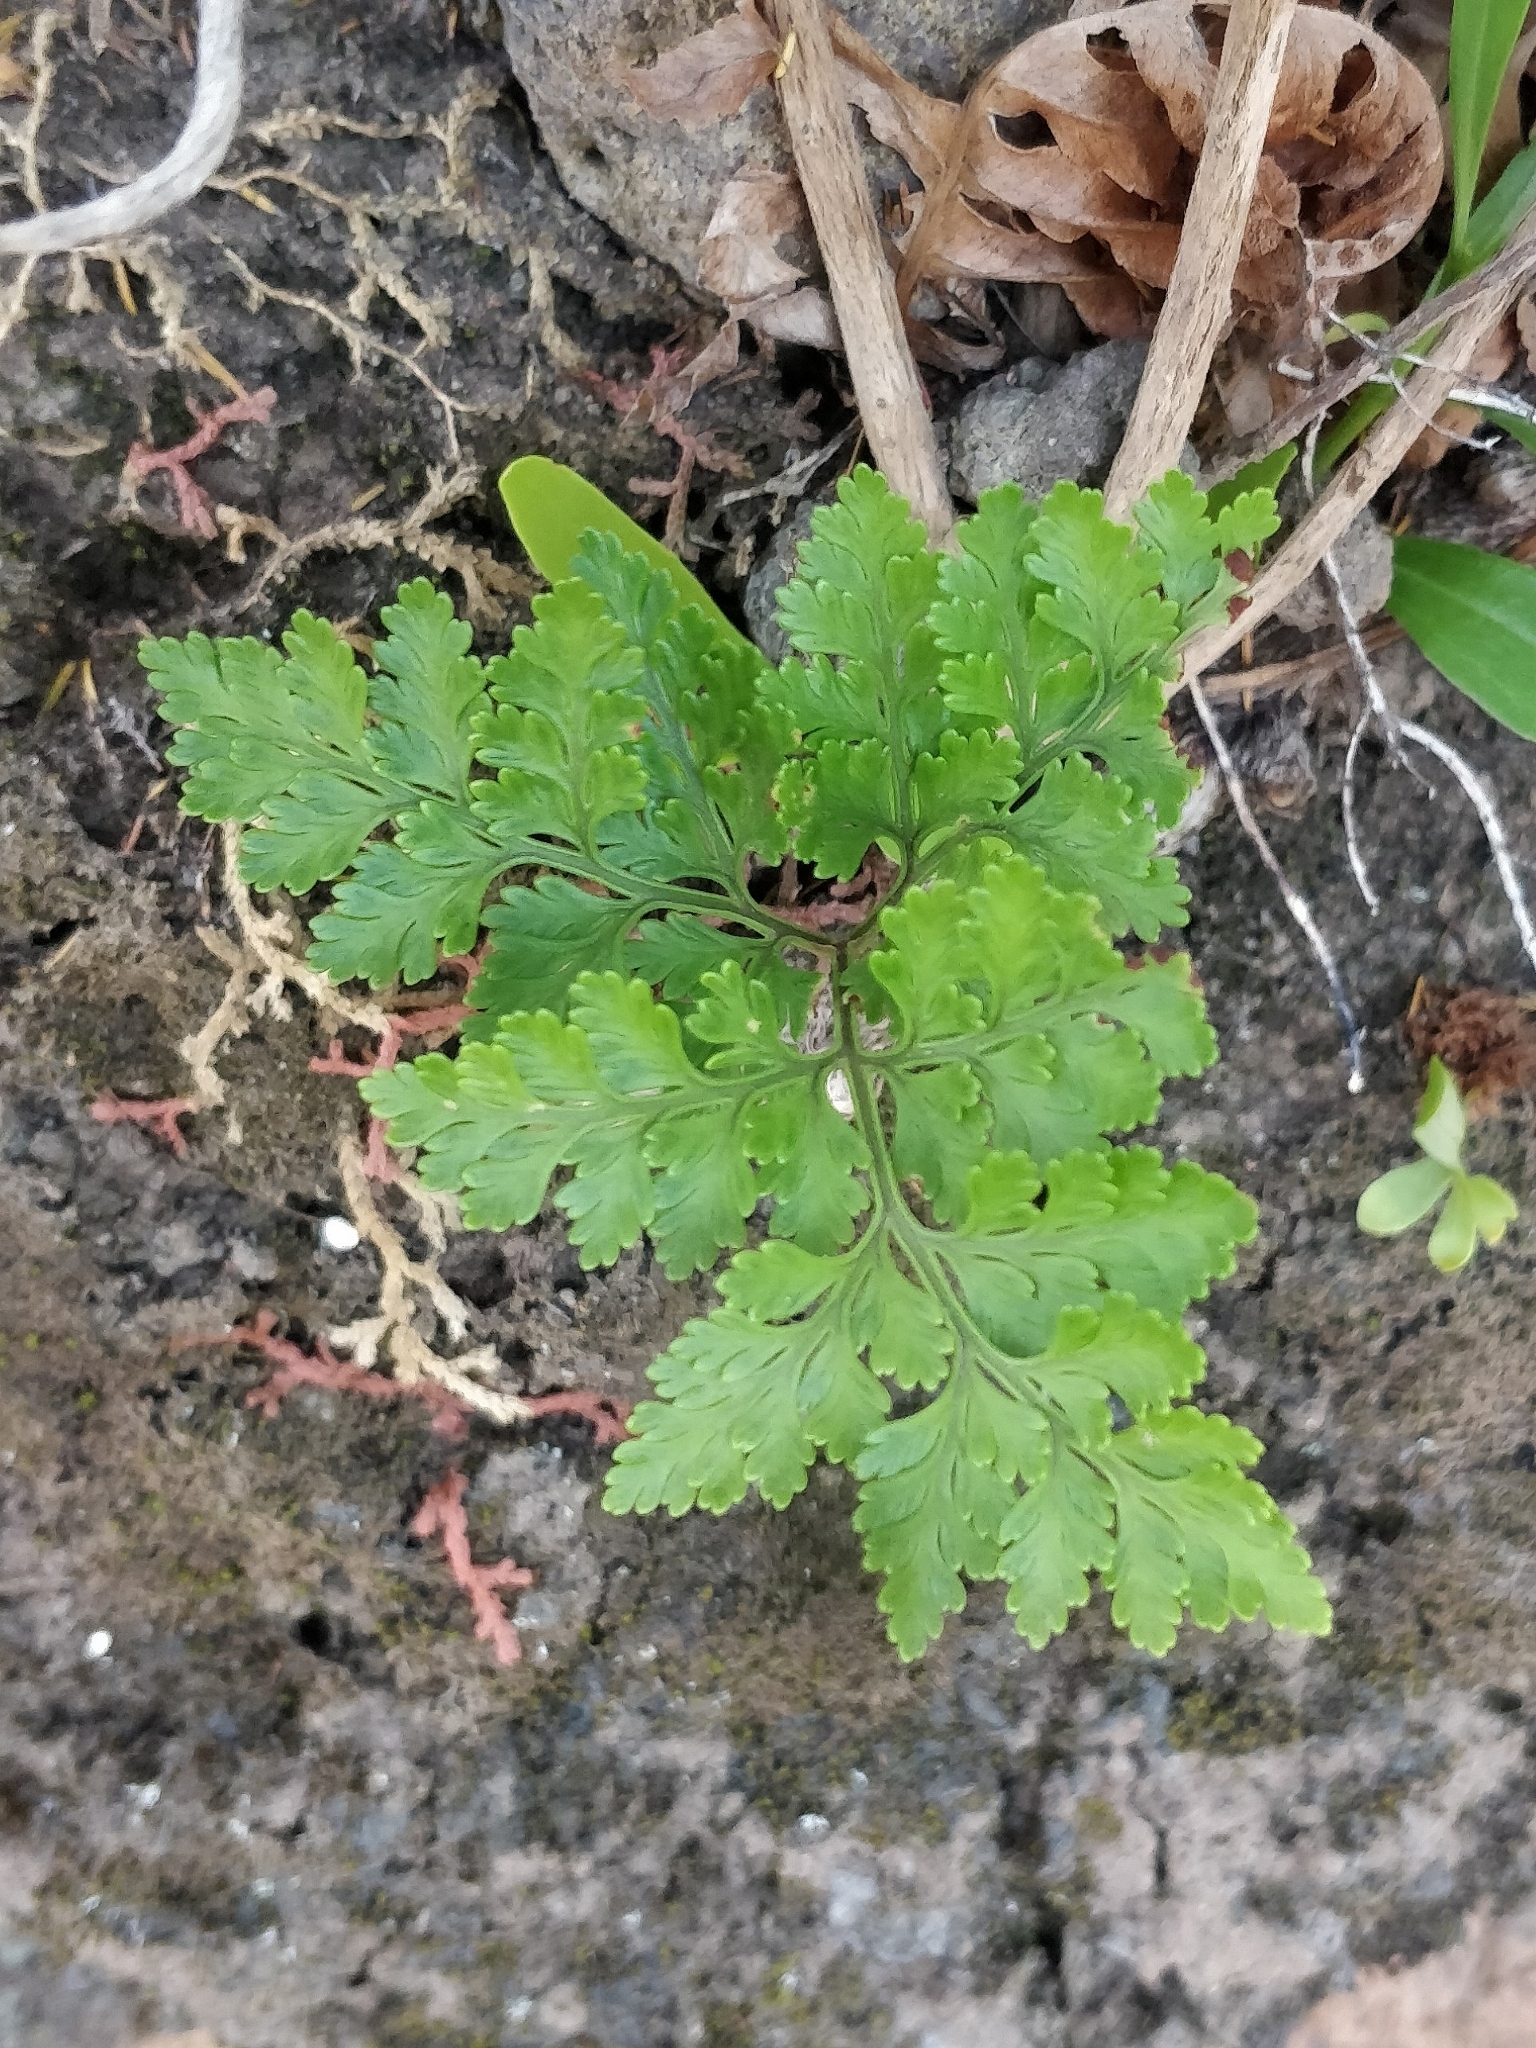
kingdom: Plantae
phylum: Tracheophyta
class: Polypodiopsida
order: Polypodiales
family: Davalliaceae
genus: Davallia
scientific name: Davallia canariensis
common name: Hare's-foot fern
